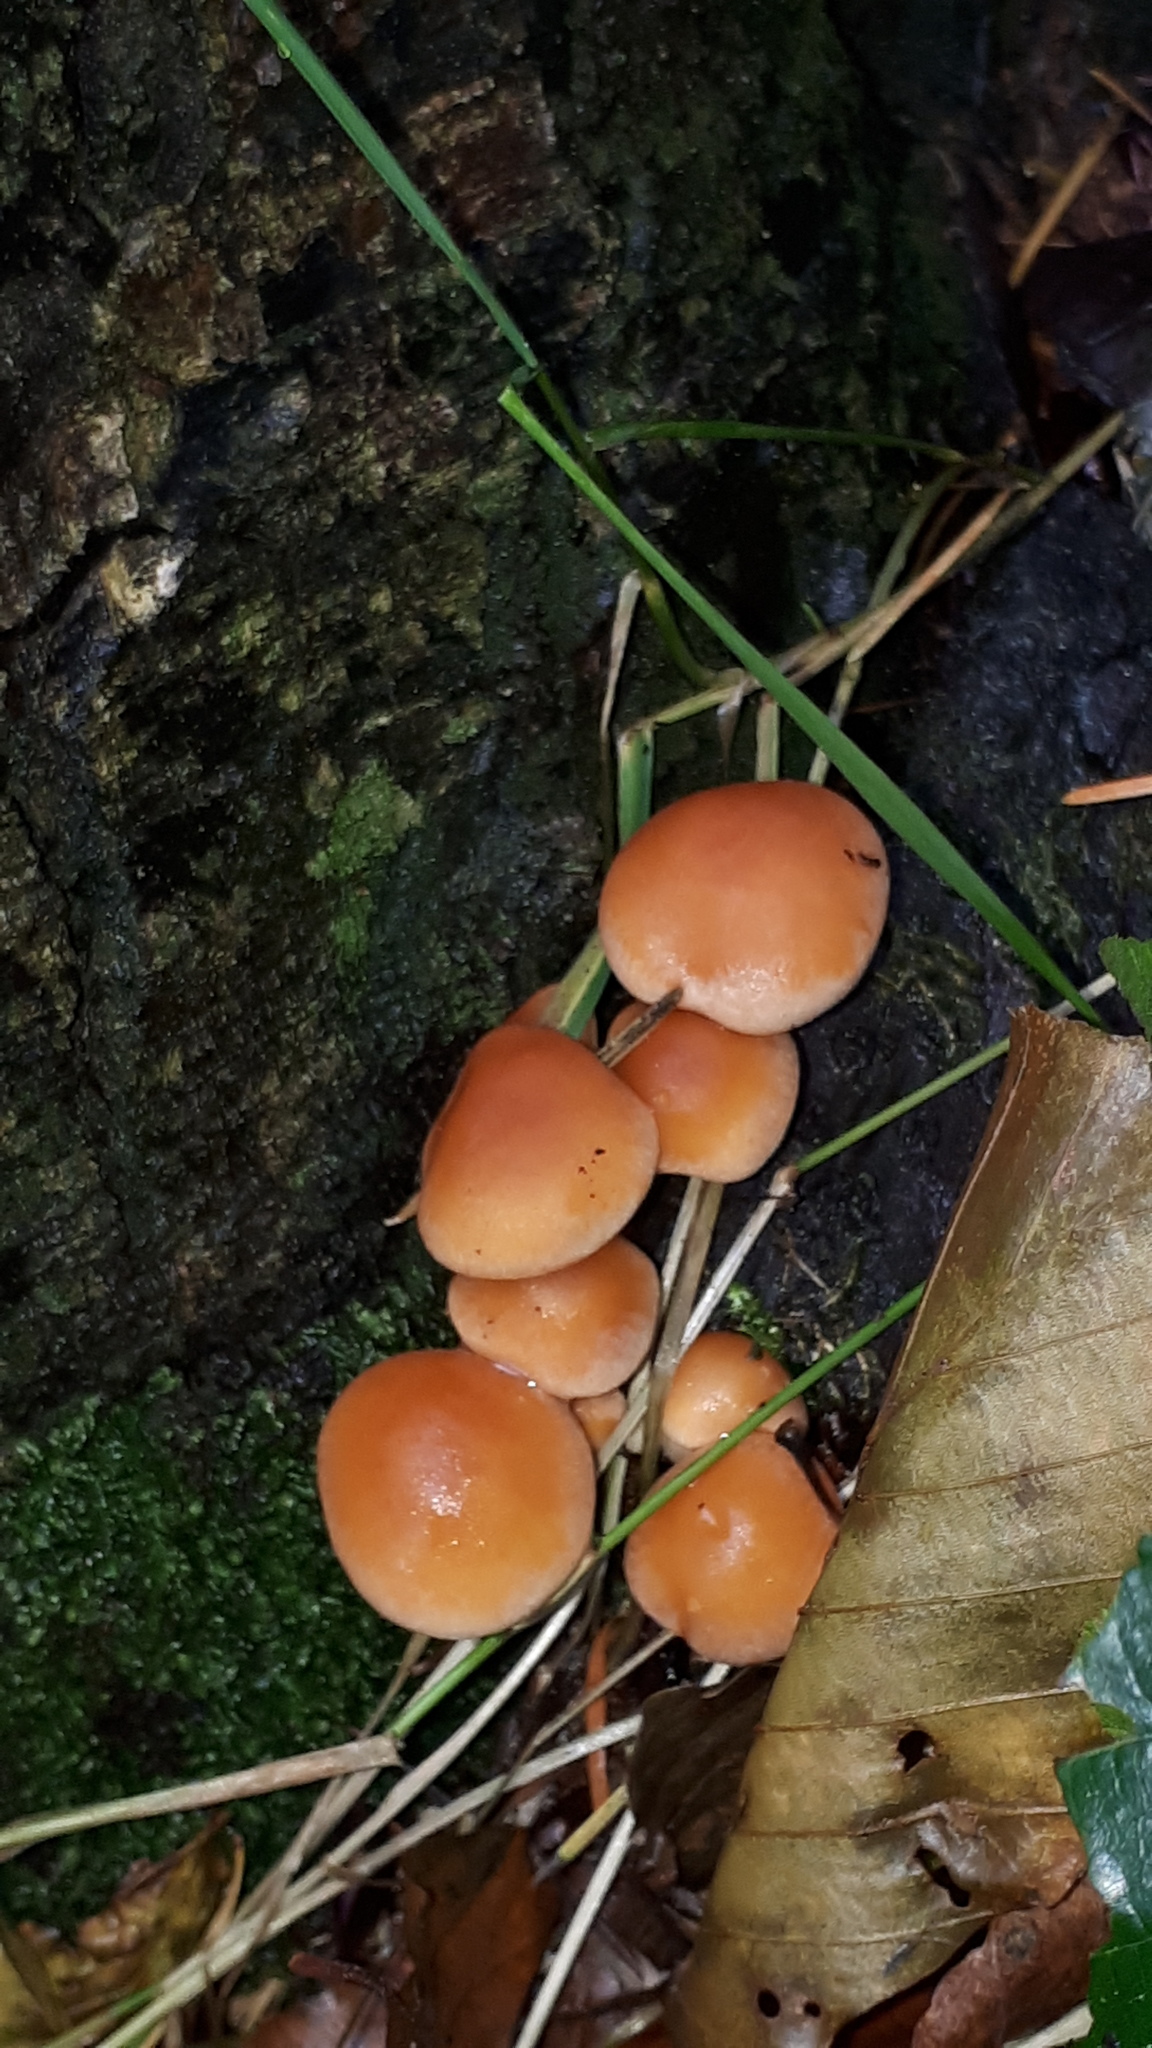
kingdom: Fungi
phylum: Basidiomycota
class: Agaricomycetes
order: Agaricales
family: Strophariaceae
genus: Hypholoma
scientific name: Hypholoma lateritium
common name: Brick caps
